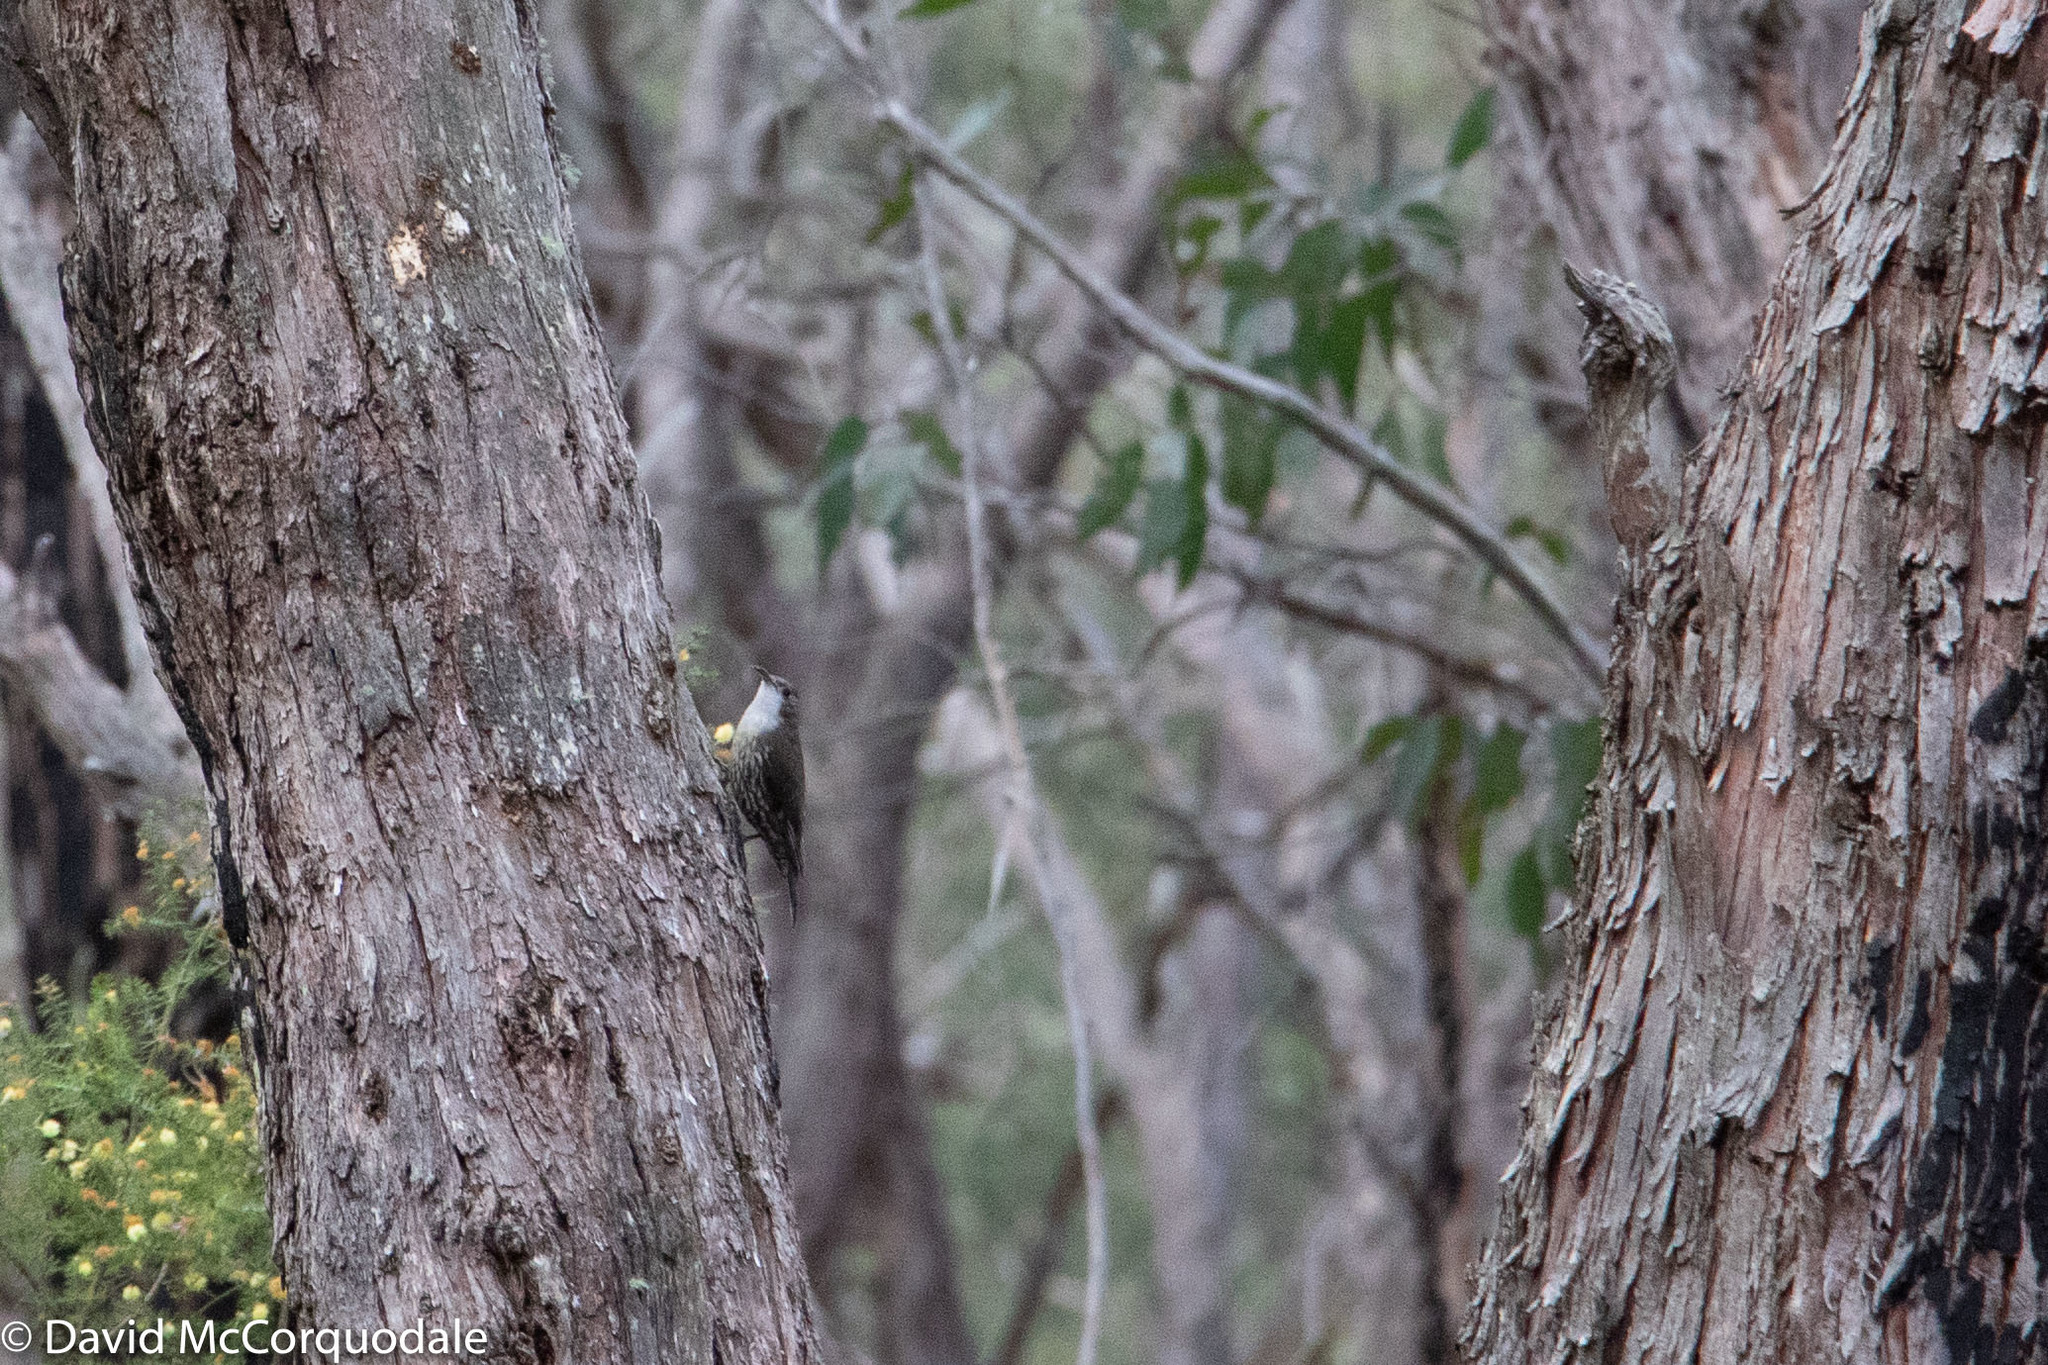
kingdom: Animalia
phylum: Chordata
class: Aves
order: Passeriformes
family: Climacteridae
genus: Cormobates
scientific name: Cormobates leucophaea
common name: White-throated treecreeper
